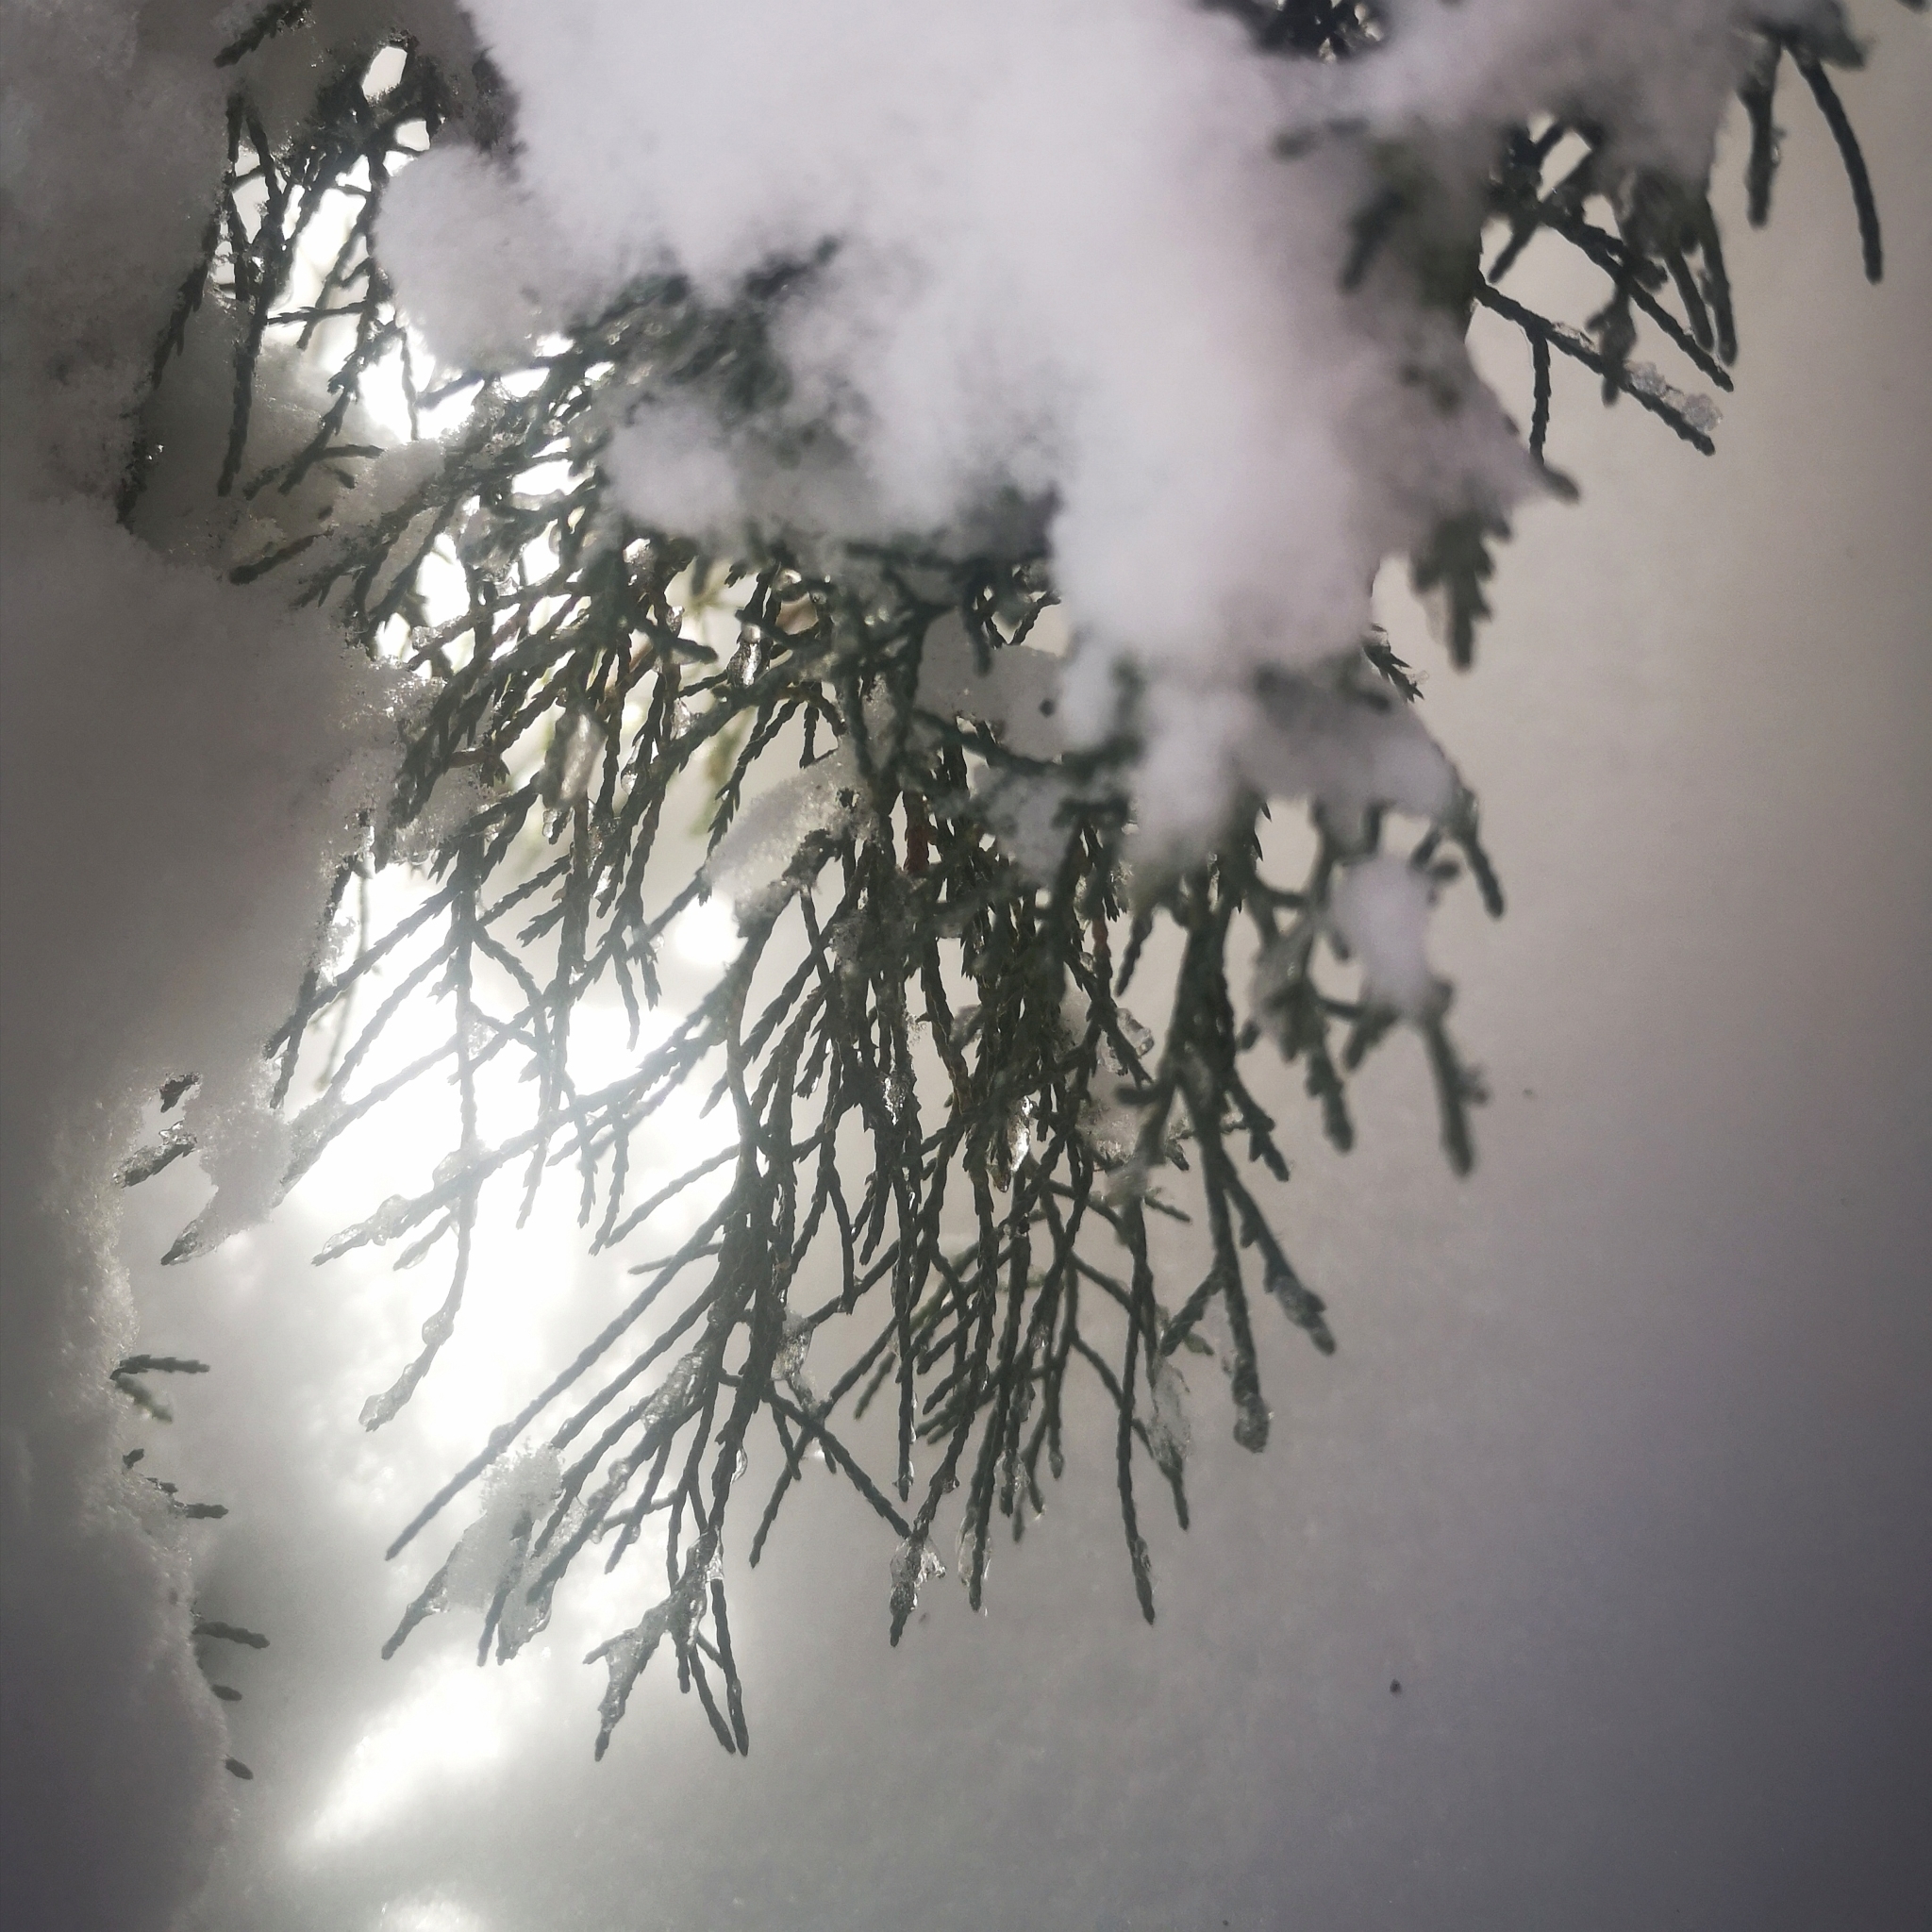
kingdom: Plantae
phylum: Tracheophyta
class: Pinopsida
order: Pinales
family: Cupressaceae
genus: Juniperus
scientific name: Juniperus virginiana
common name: Red juniper
